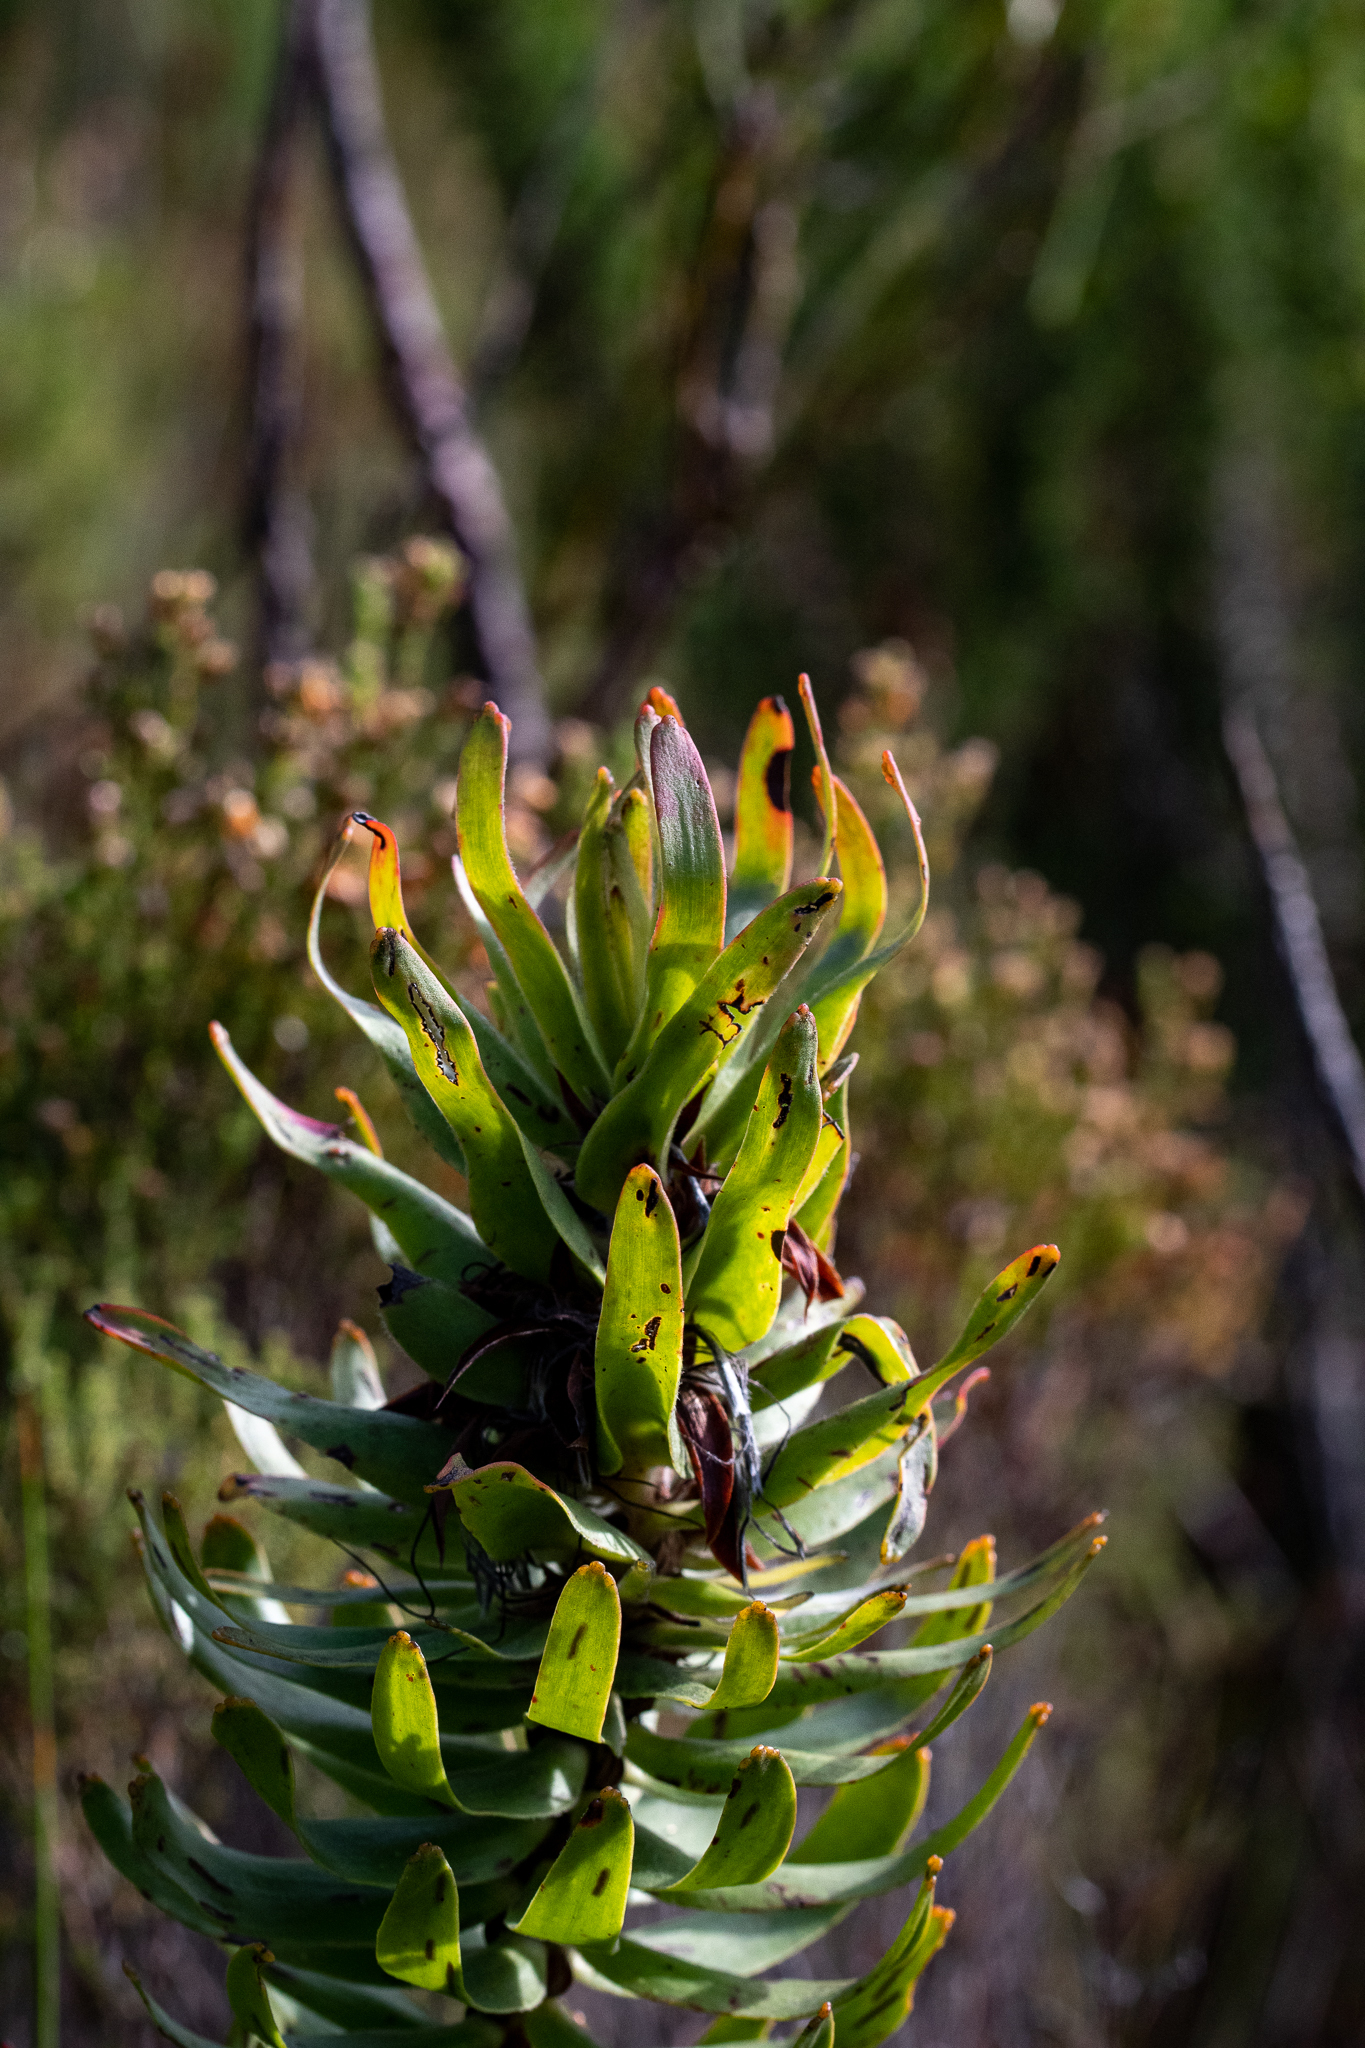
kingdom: Plantae
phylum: Tracheophyta
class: Magnoliopsida
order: Proteales
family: Proteaceae
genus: Mimetes
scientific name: Mimetes cucullatus
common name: Common pagoda
